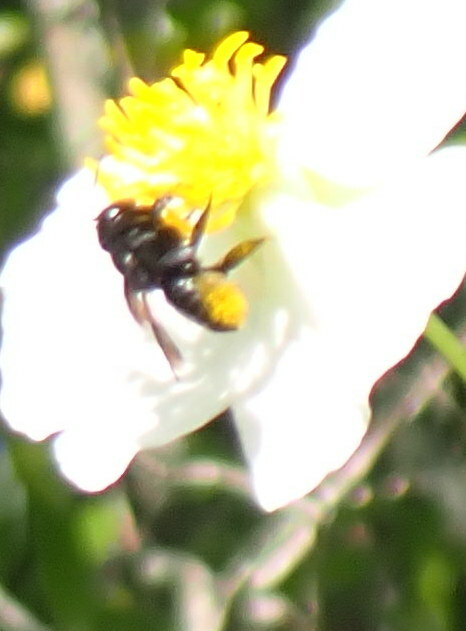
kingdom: Animalia
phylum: Arthropoda
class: Insecta
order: Hymenoptera
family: Megachilidae
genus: Megachile
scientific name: Megachile xylocopoides
